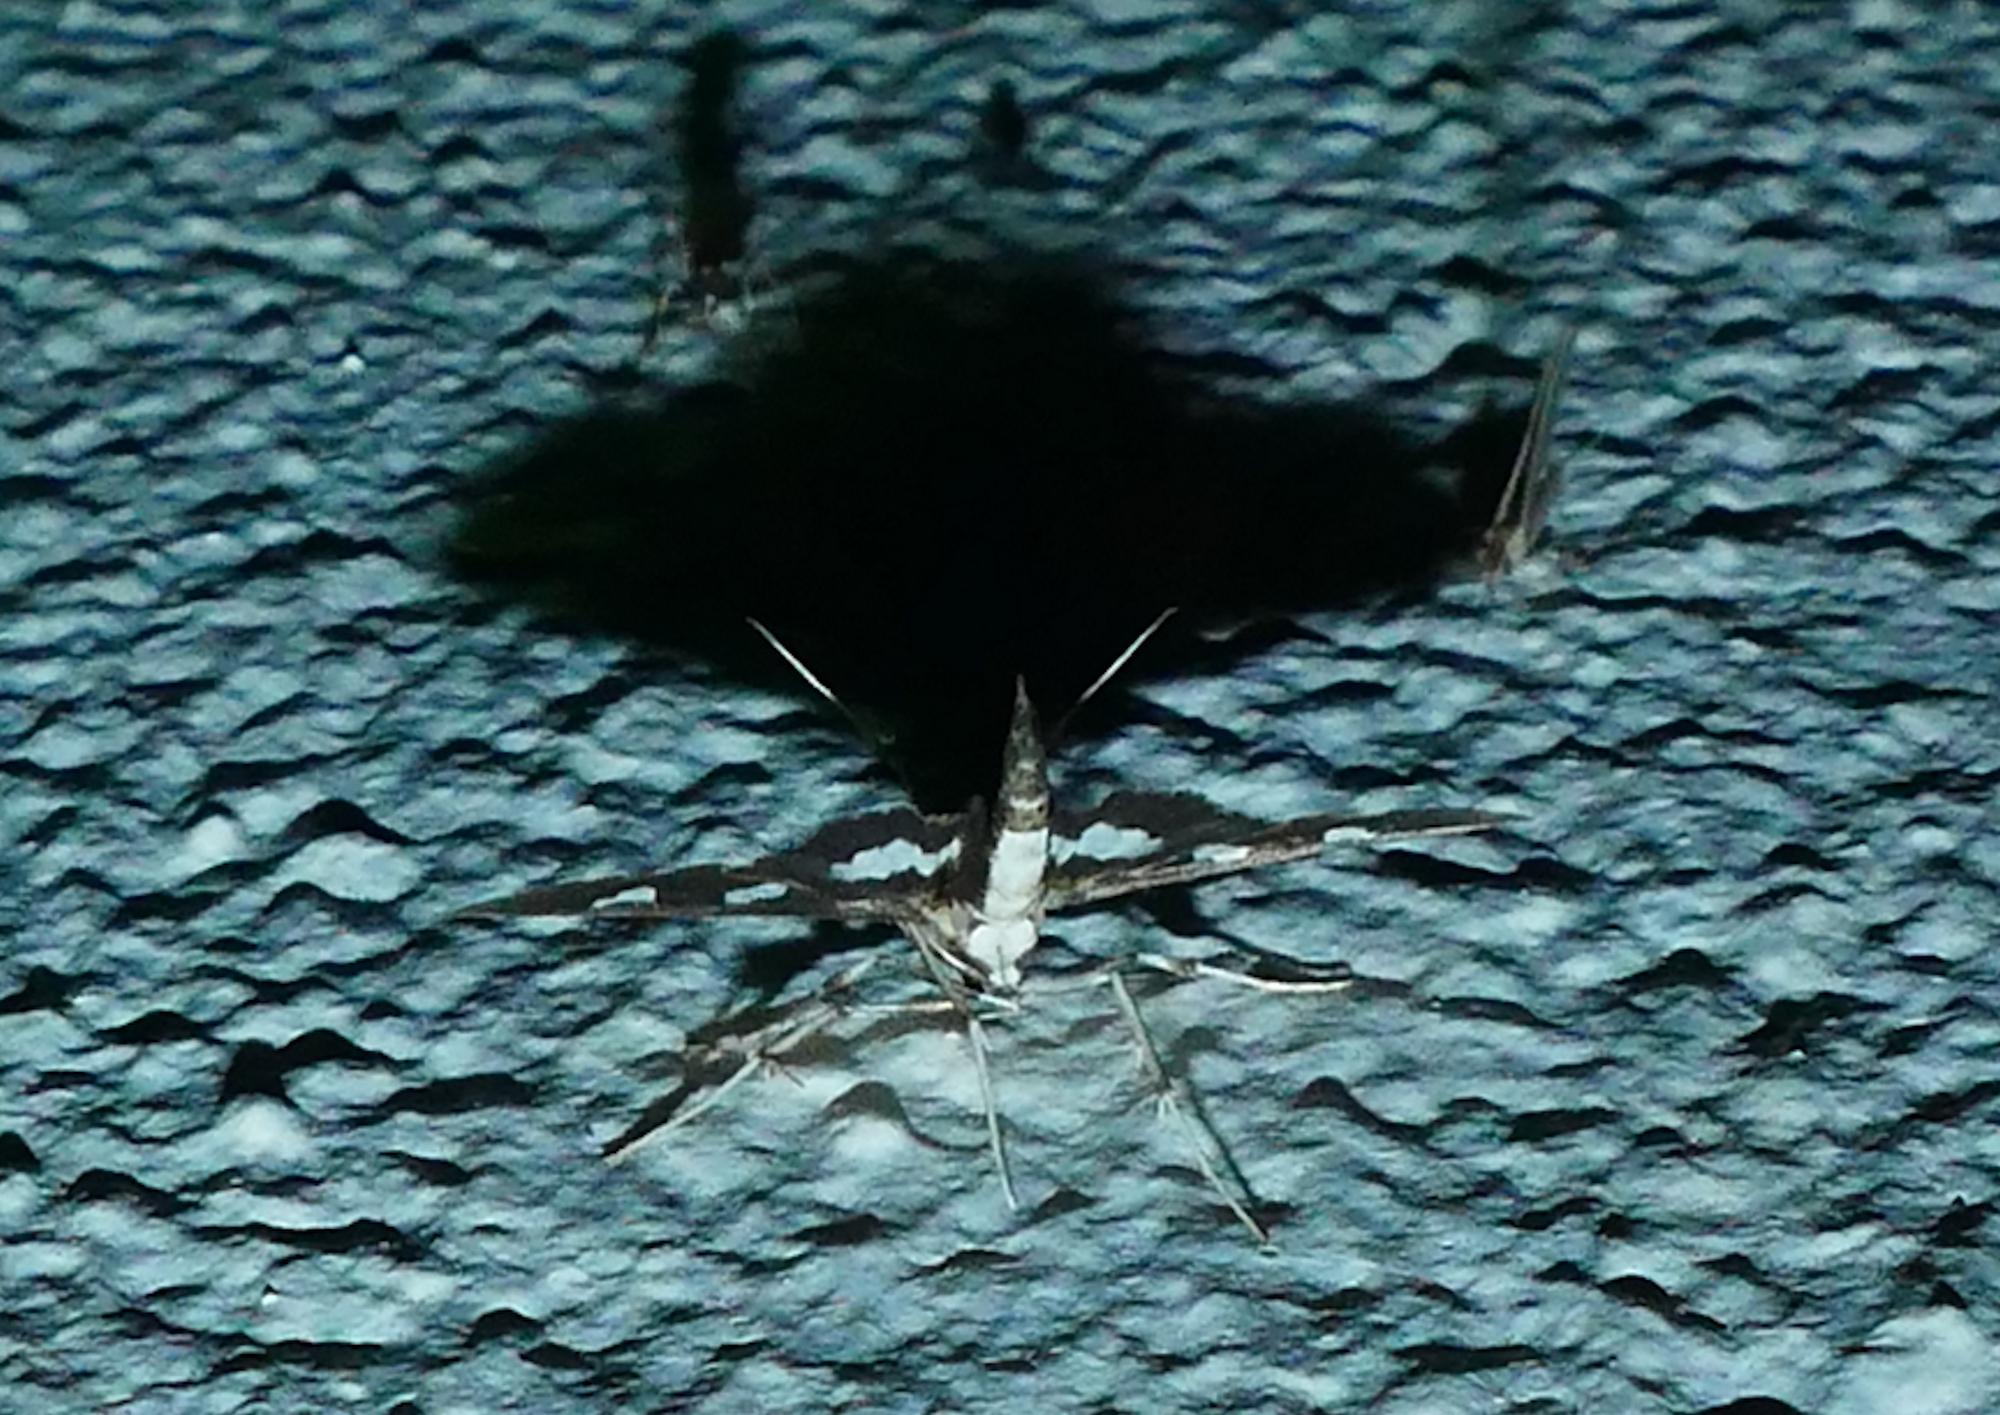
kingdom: Animalia
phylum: Arthropoda
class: Insecta
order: Lepidoptera
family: Crambidae
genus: Desmia
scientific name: Desmia funeralis
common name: Grape leaf folder moth
